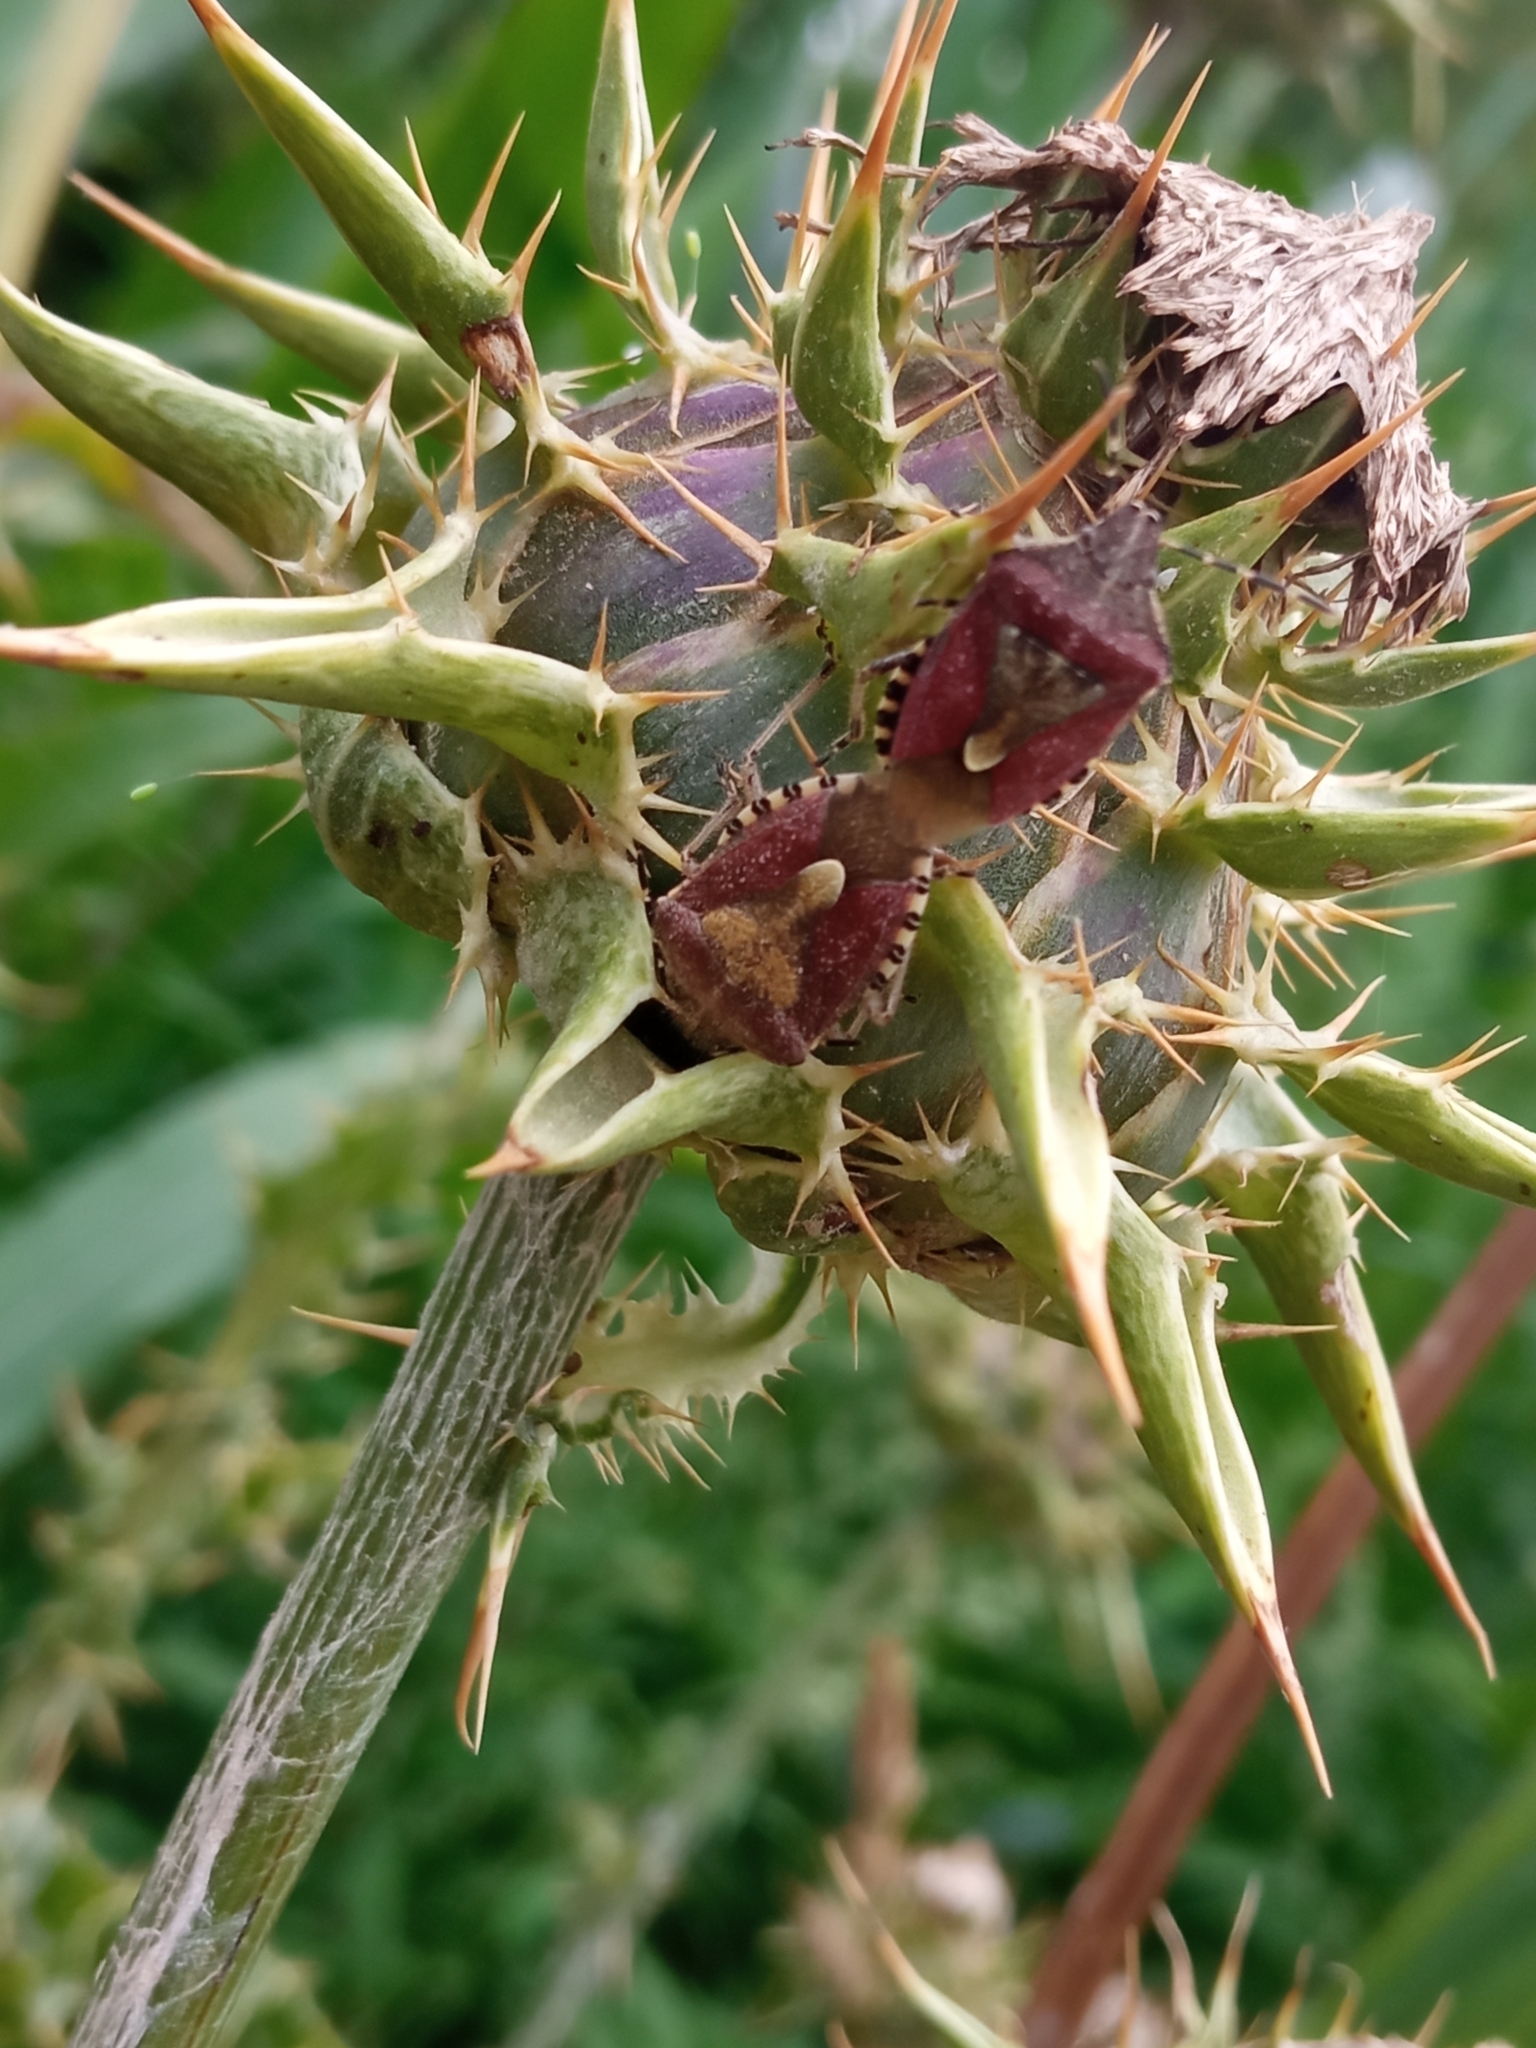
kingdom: Animalia
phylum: Arthropoda
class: Insecta
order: Hemiptera
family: Pentatomidae
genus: Dolycoris
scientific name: Dolycoris baccarum
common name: Sloe bug
